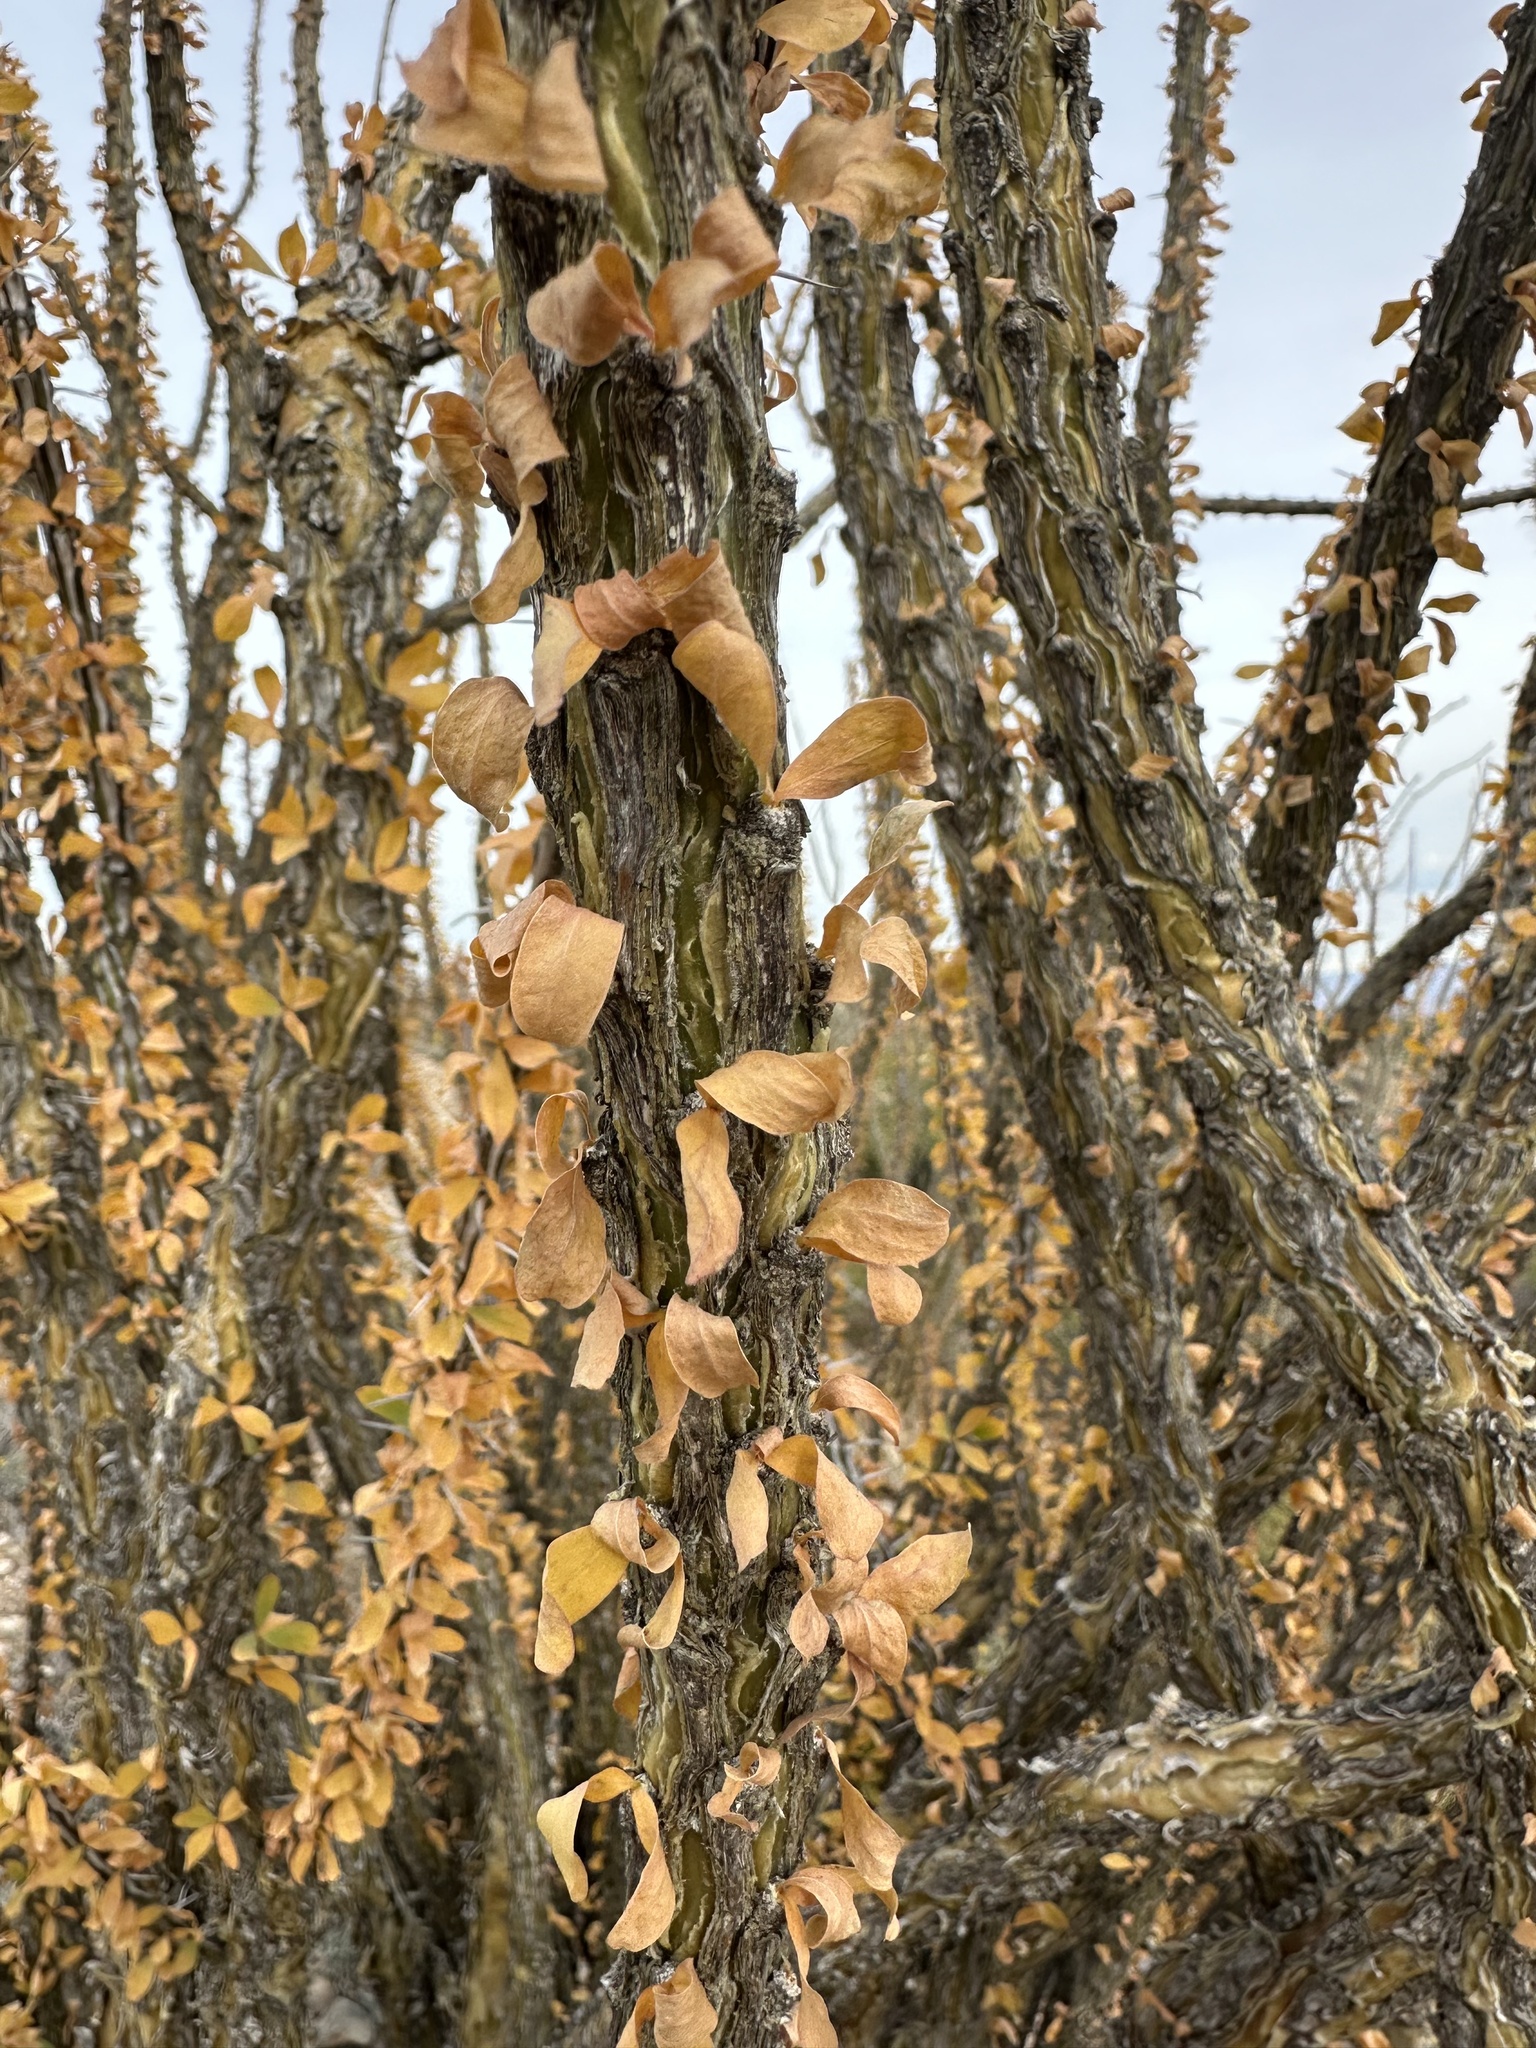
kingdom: Plantae
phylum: Tracheophyta
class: Magnoliopsida
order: Ericales
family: Fouquieriaceae
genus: Fouquieria
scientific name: Fouquieria splendens
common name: Vine-cactus
